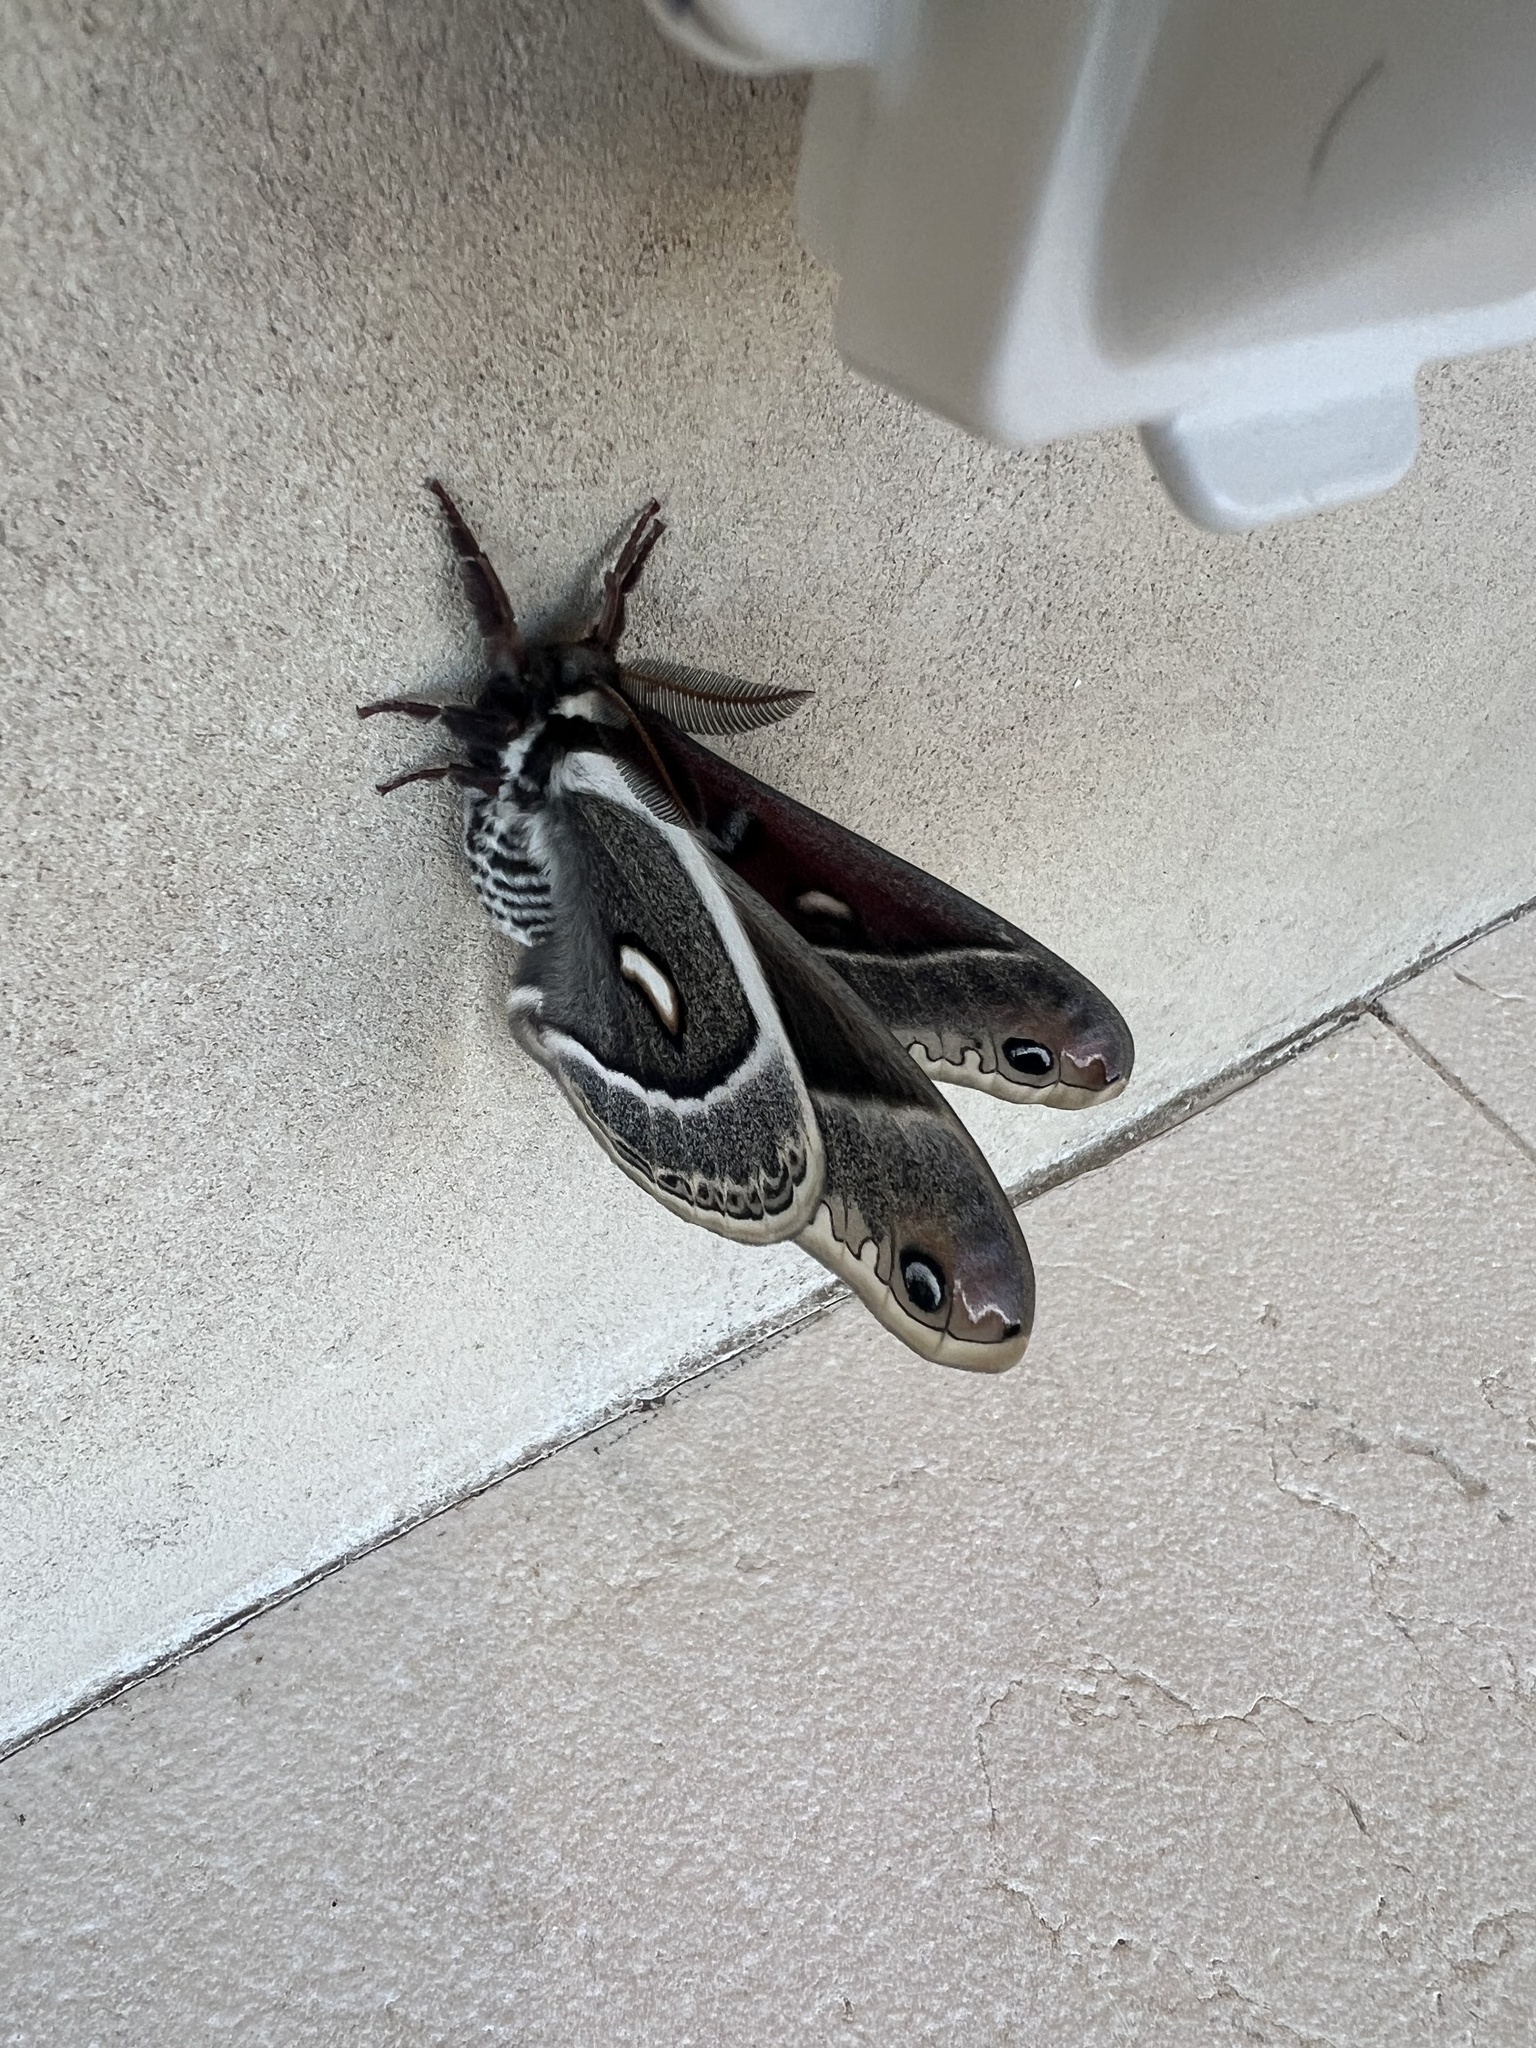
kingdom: Animalia
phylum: Arthropoda
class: Insecta
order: Lepidoptera
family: Saturniidae
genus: Hyalophora
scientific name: Hyalophora gloveri
